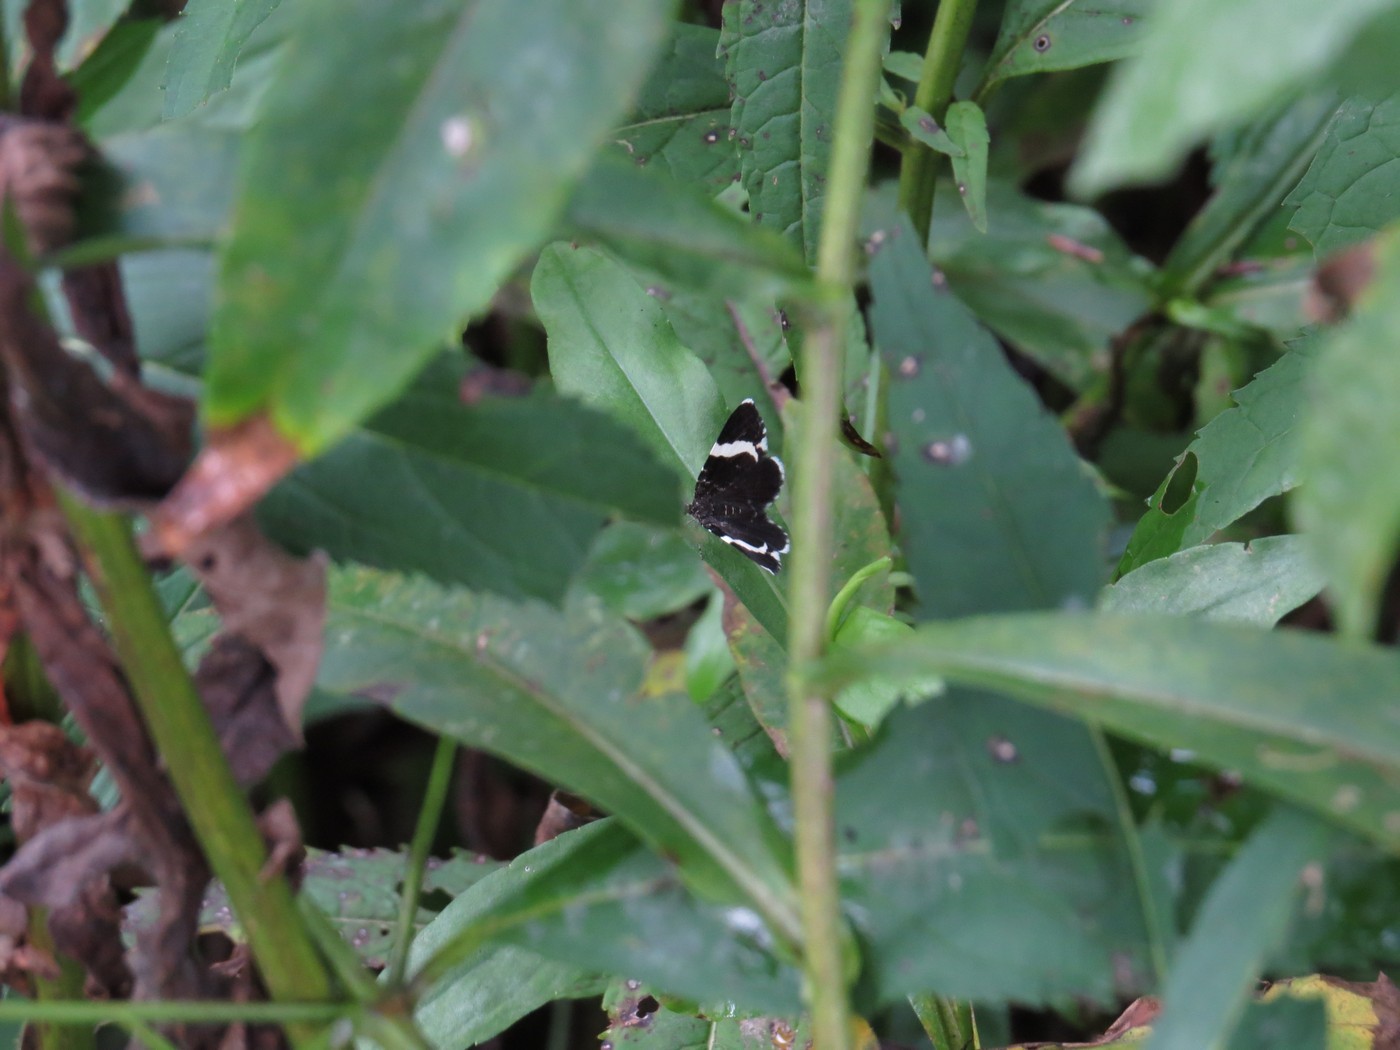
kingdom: Animalia
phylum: Arthropoda
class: Insecta
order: Lepidoptera
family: Geometridae
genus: Trichodezia
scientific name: Trichodezia albovittata
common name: White striped black
